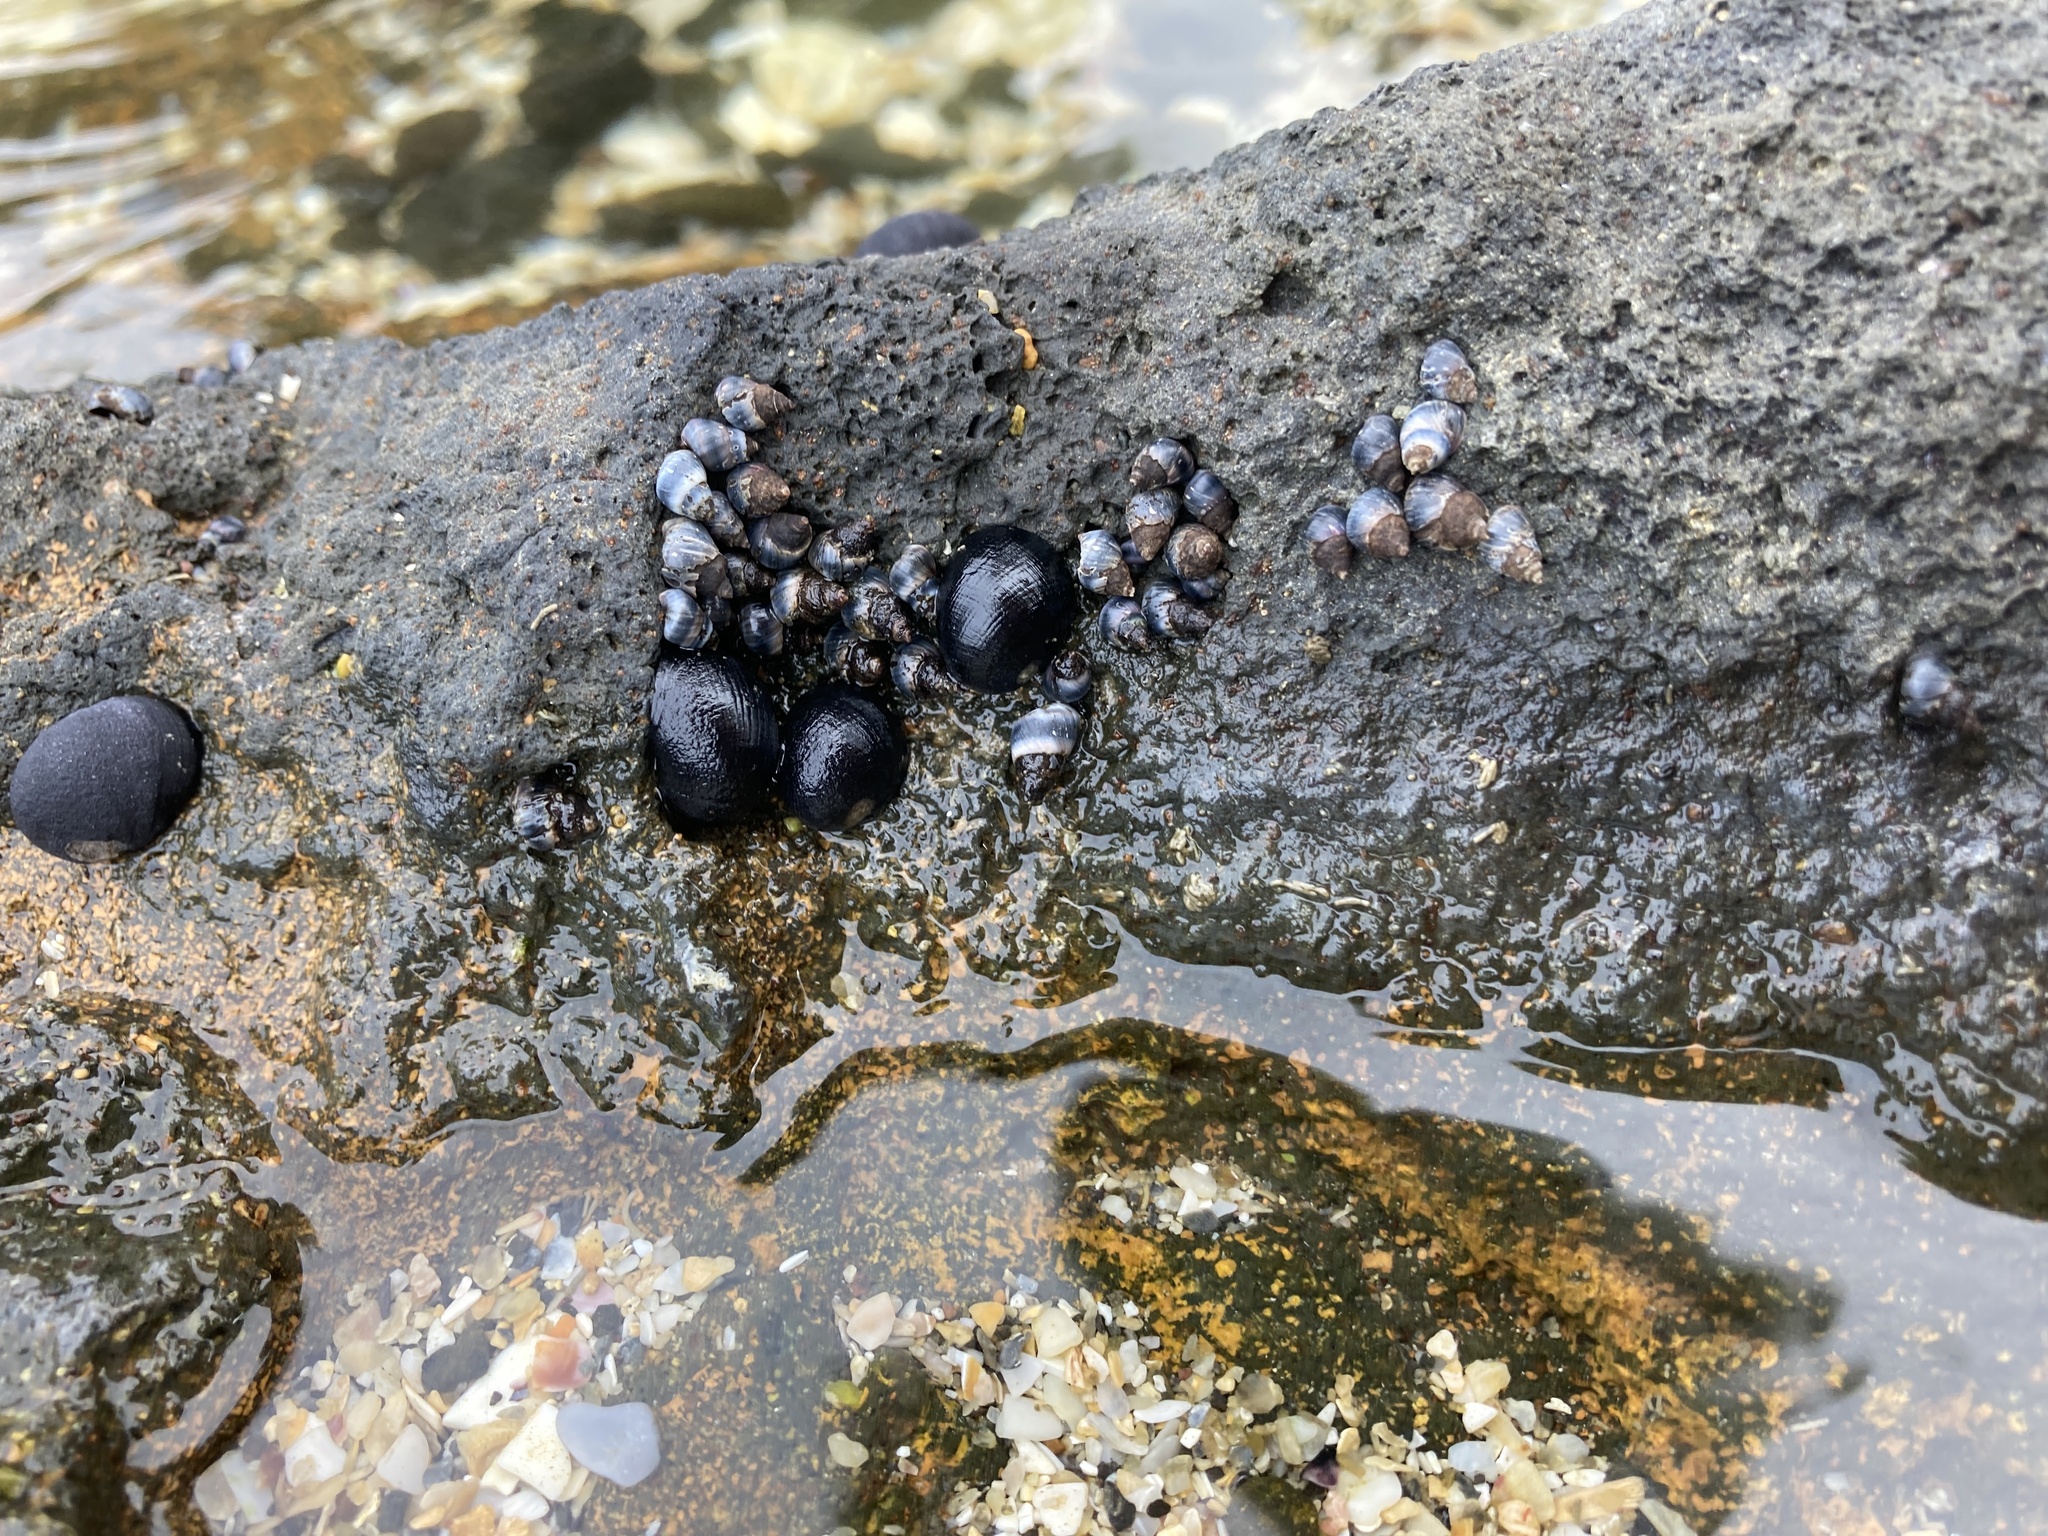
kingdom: Animalia
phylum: Mollusca
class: Gastropoda
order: Littorinimorpha
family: Littorinidae
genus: Austrolittorina
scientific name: Austrolittorina antipodum
